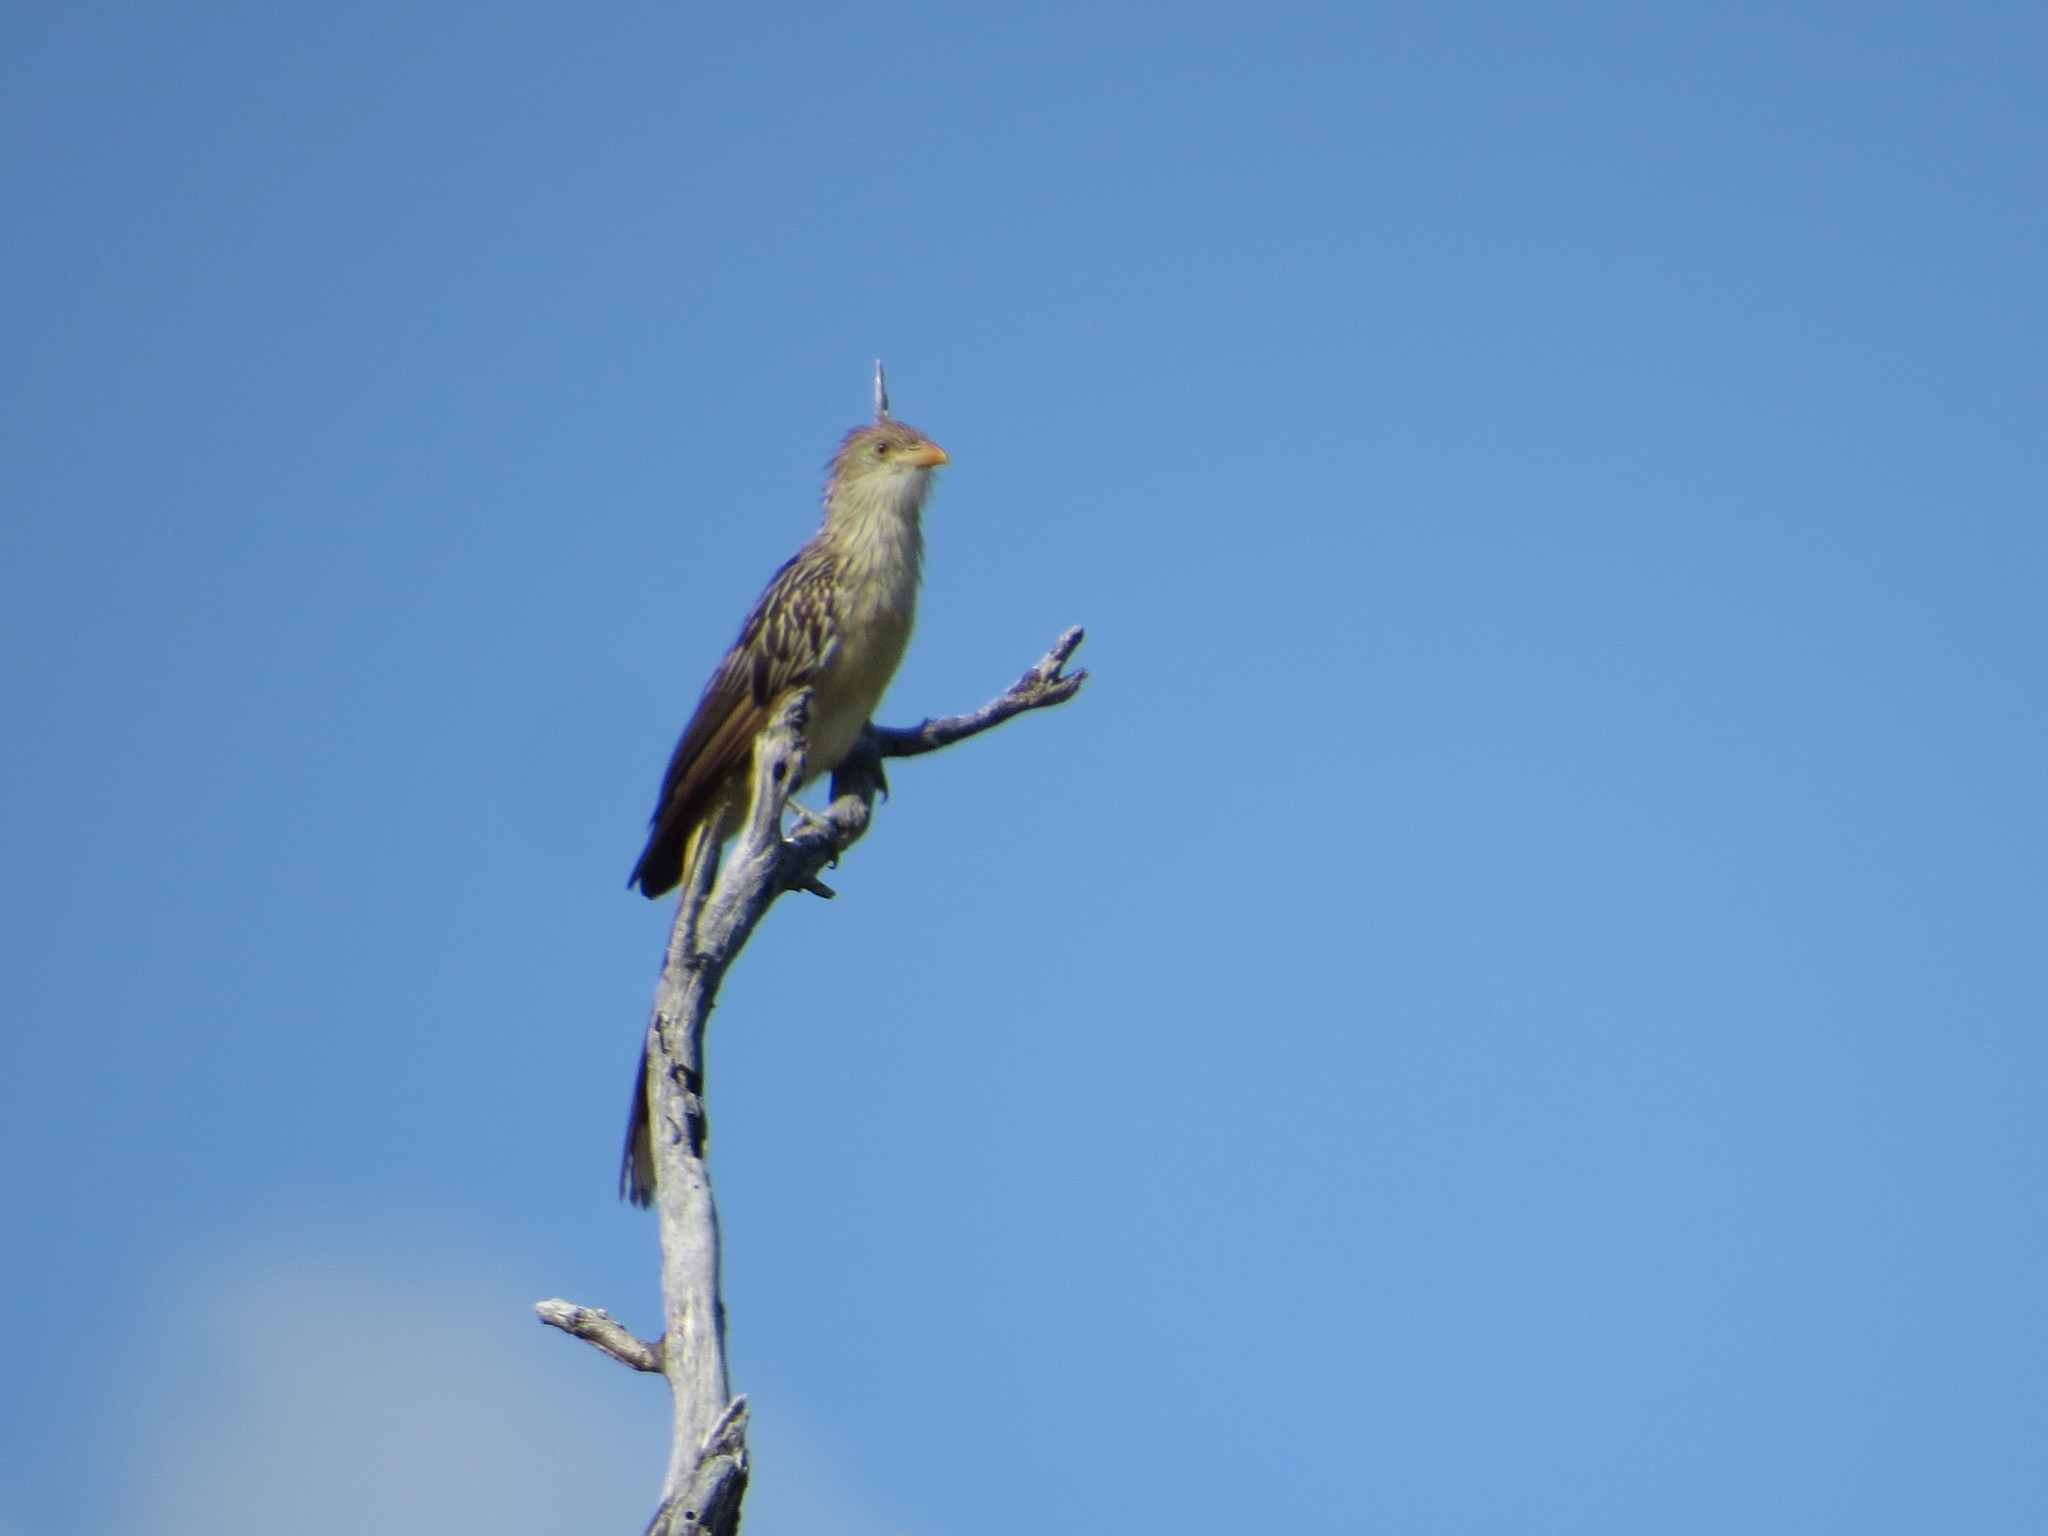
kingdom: Animalia
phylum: Chordata
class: Aves
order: Cuculiformes
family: Cuculidae
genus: Guira
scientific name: Guira guira
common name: Guira cuckoo
